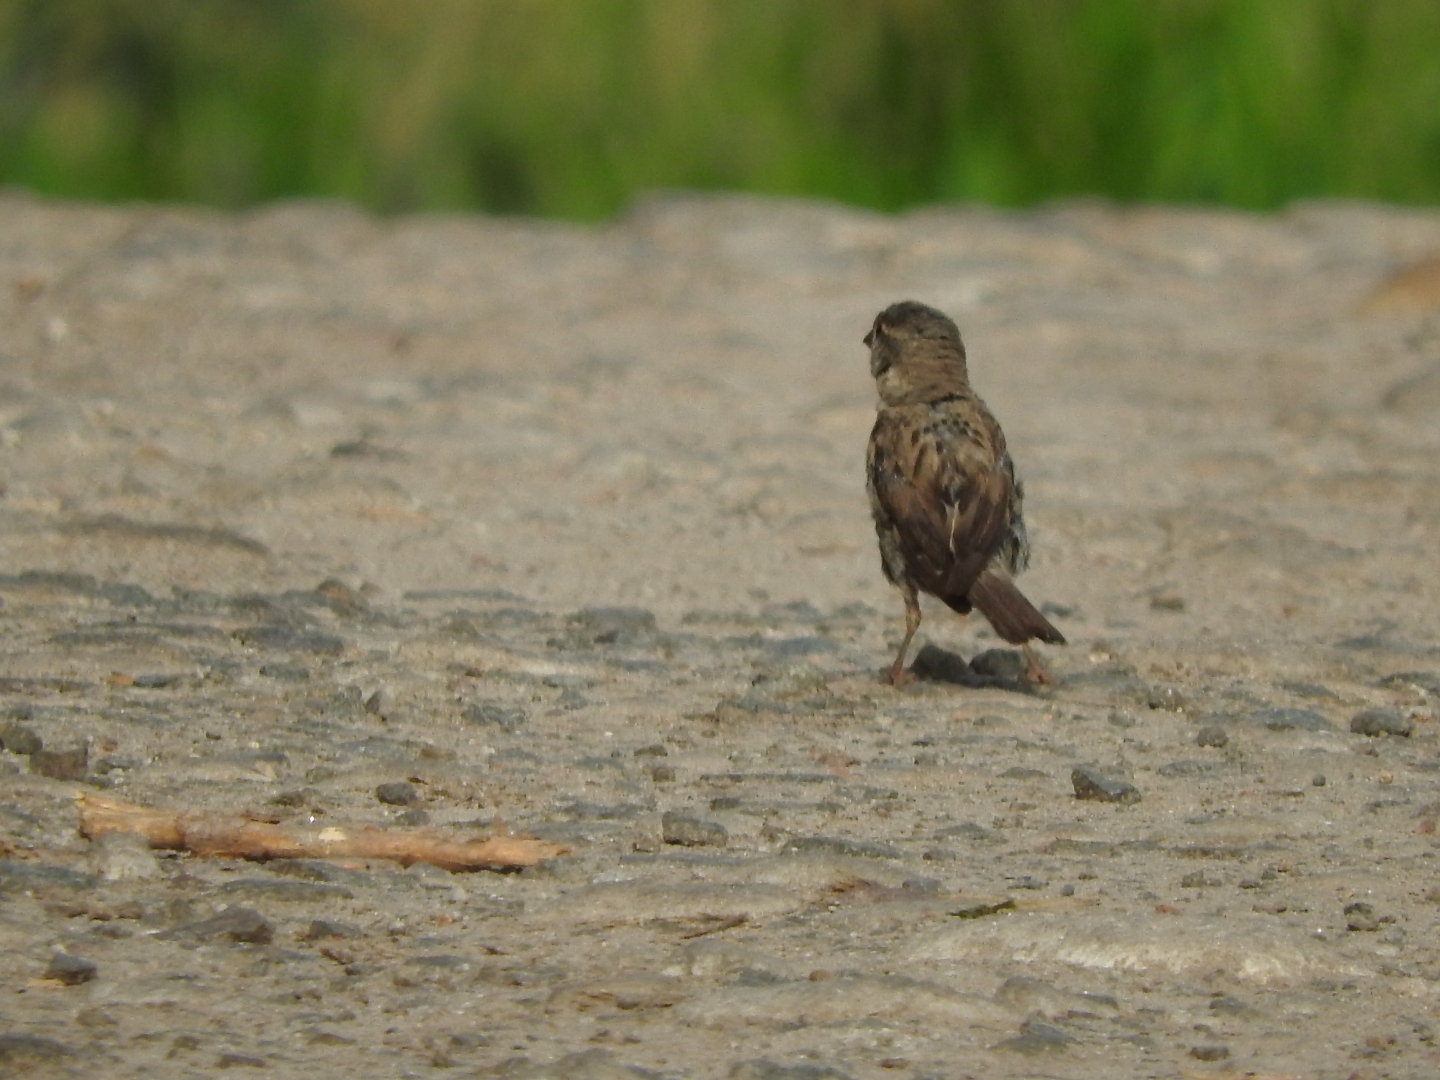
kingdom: Animalia
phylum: Chordata
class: Aves
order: Passeriformes
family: Passeridae
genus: Passer
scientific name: Passer domesticus
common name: House sparrow
